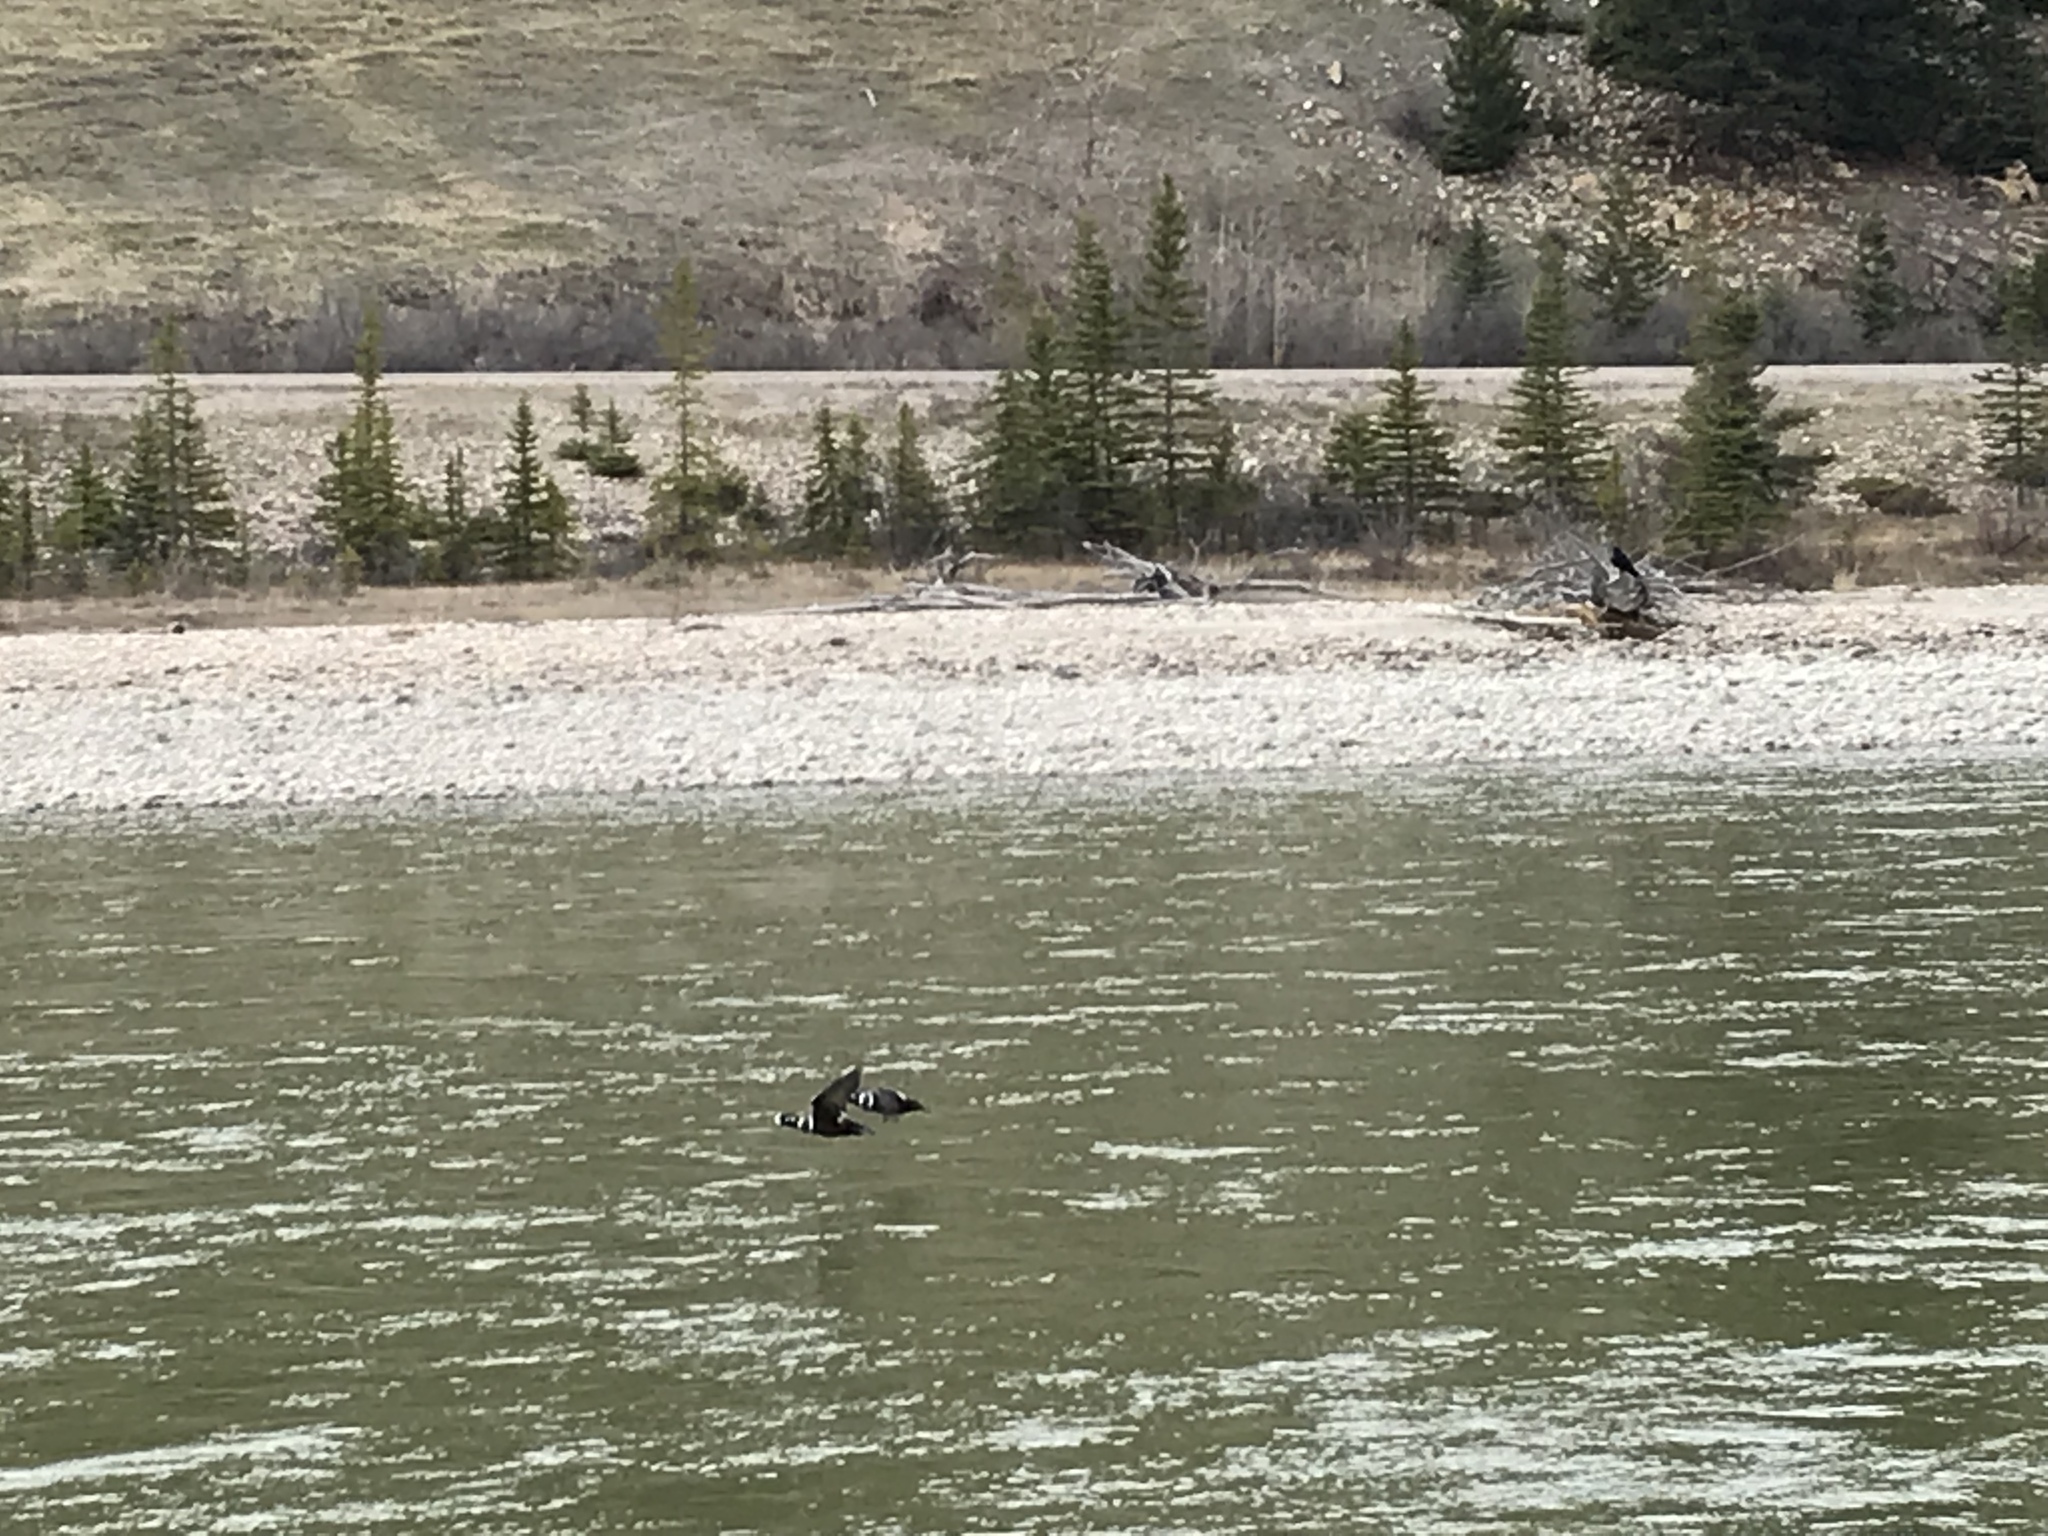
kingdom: Animalia
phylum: Chordata
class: Aves
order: Anseriformes
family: Anatidae
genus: Histrionicus
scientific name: Histrionicus histrionicus
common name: Harlequin duck
